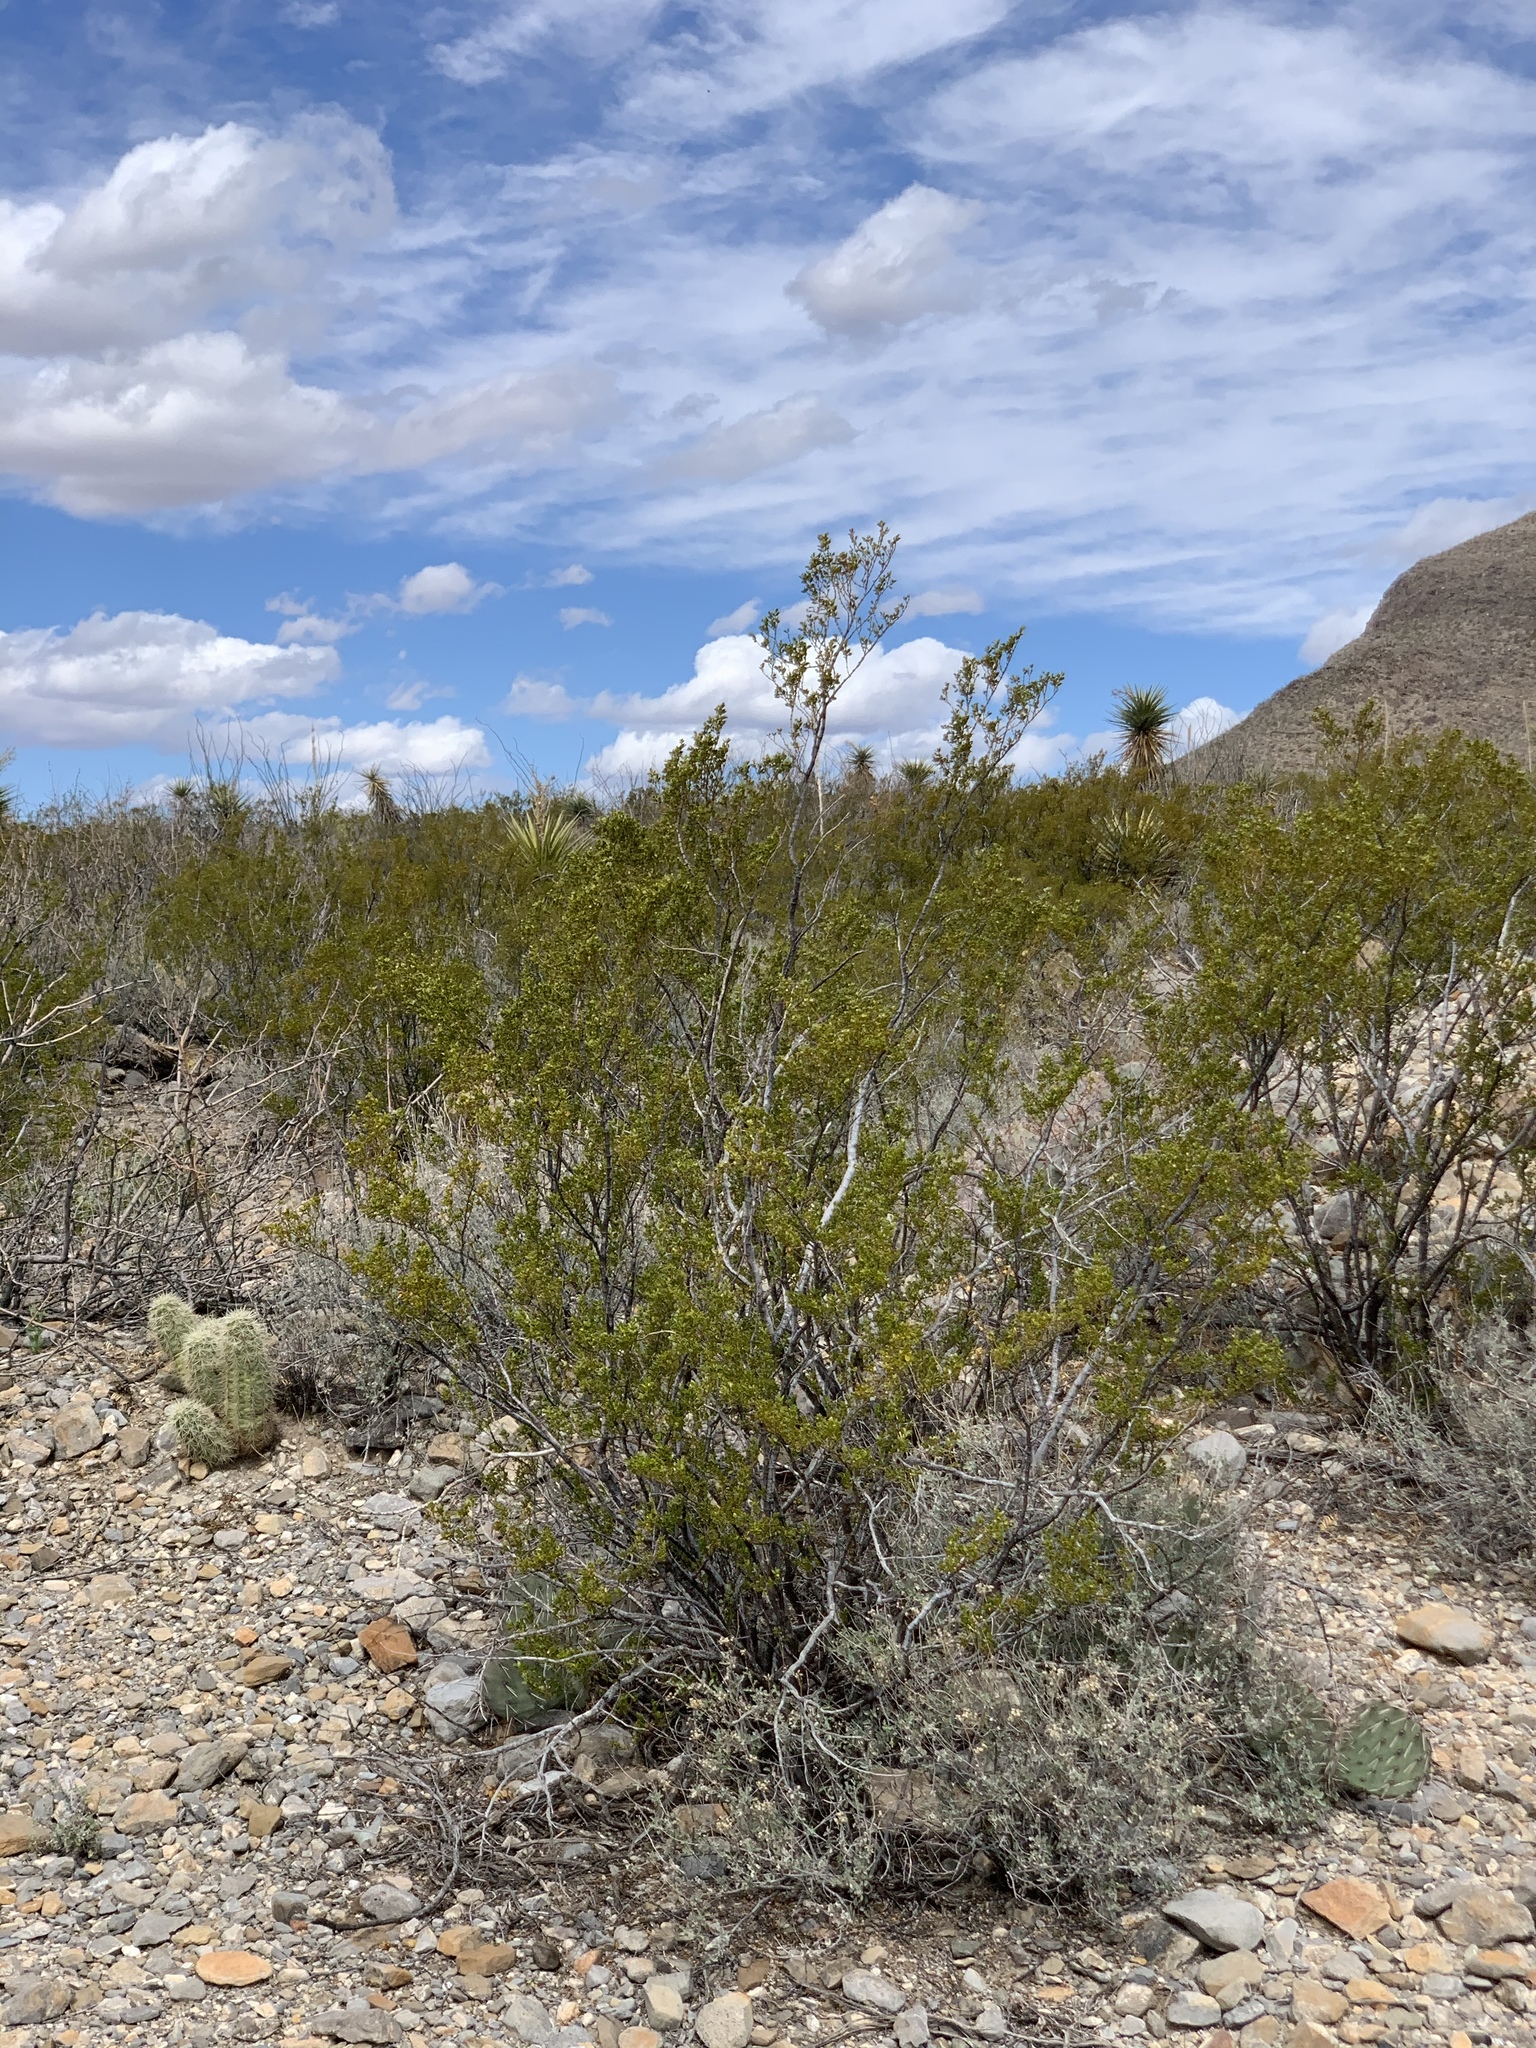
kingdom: Plantae
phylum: Tracheophyta
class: Magnoliopsida
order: Zygophyllales
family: Zygophyllaceae
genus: Larrea
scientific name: Larrea tridentata
